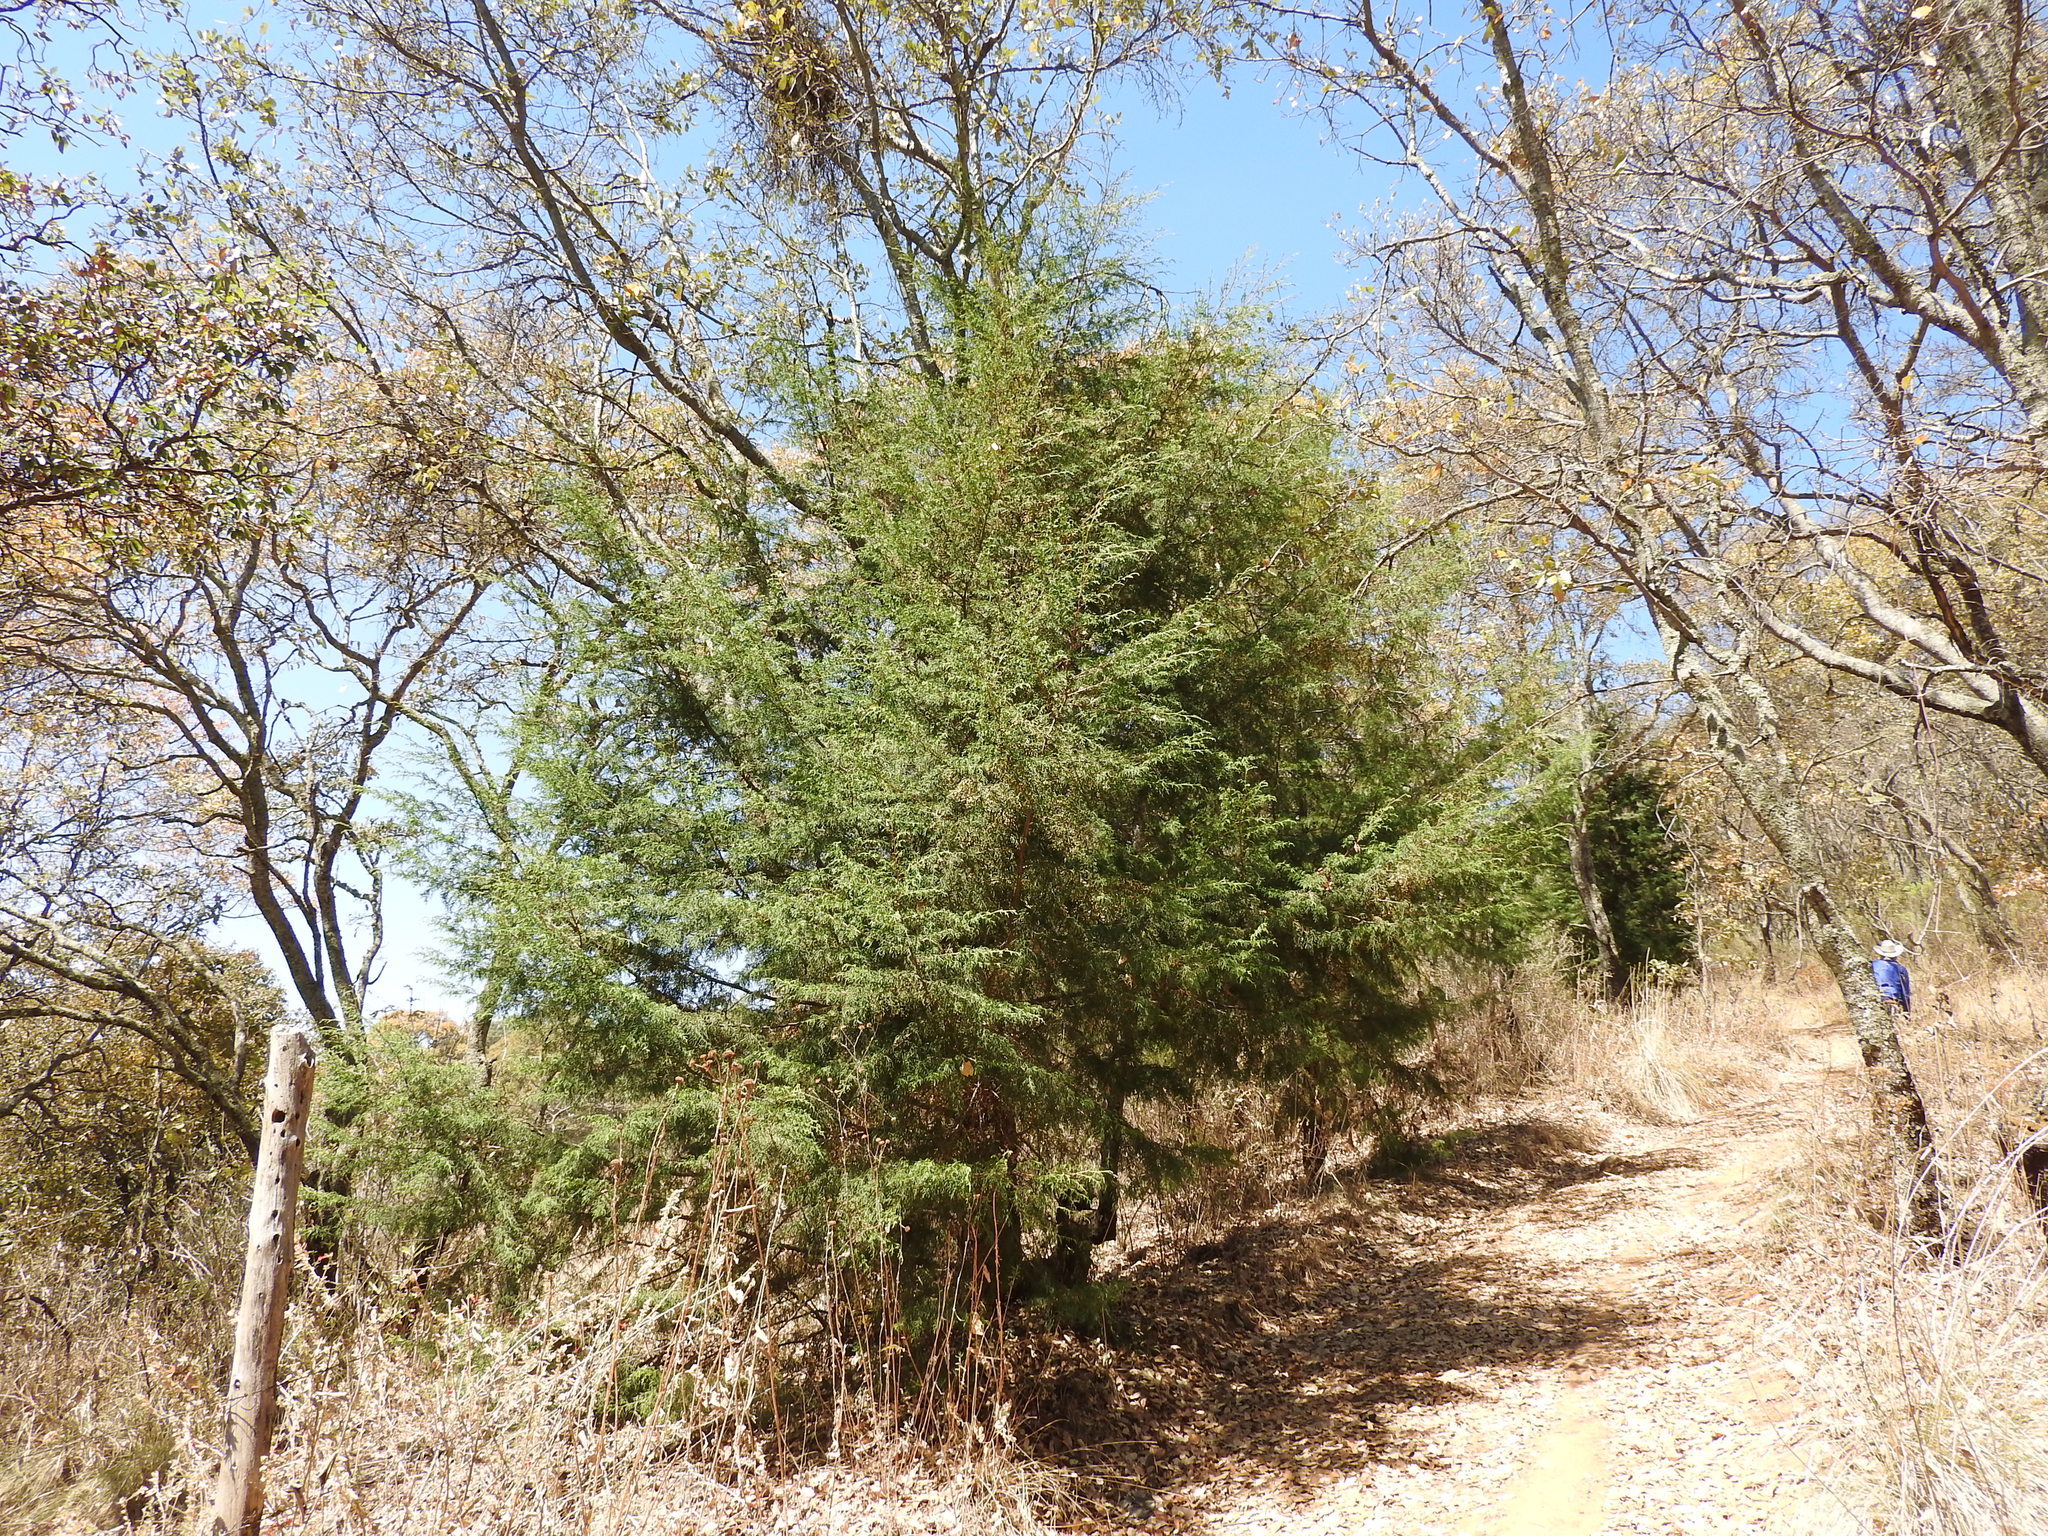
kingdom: Plantae
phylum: Tracheophyta
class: Pinopsida
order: Pinales
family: Cupressaceae
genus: Cupressus
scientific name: Cupressus lusitanica
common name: Mexican cypress
